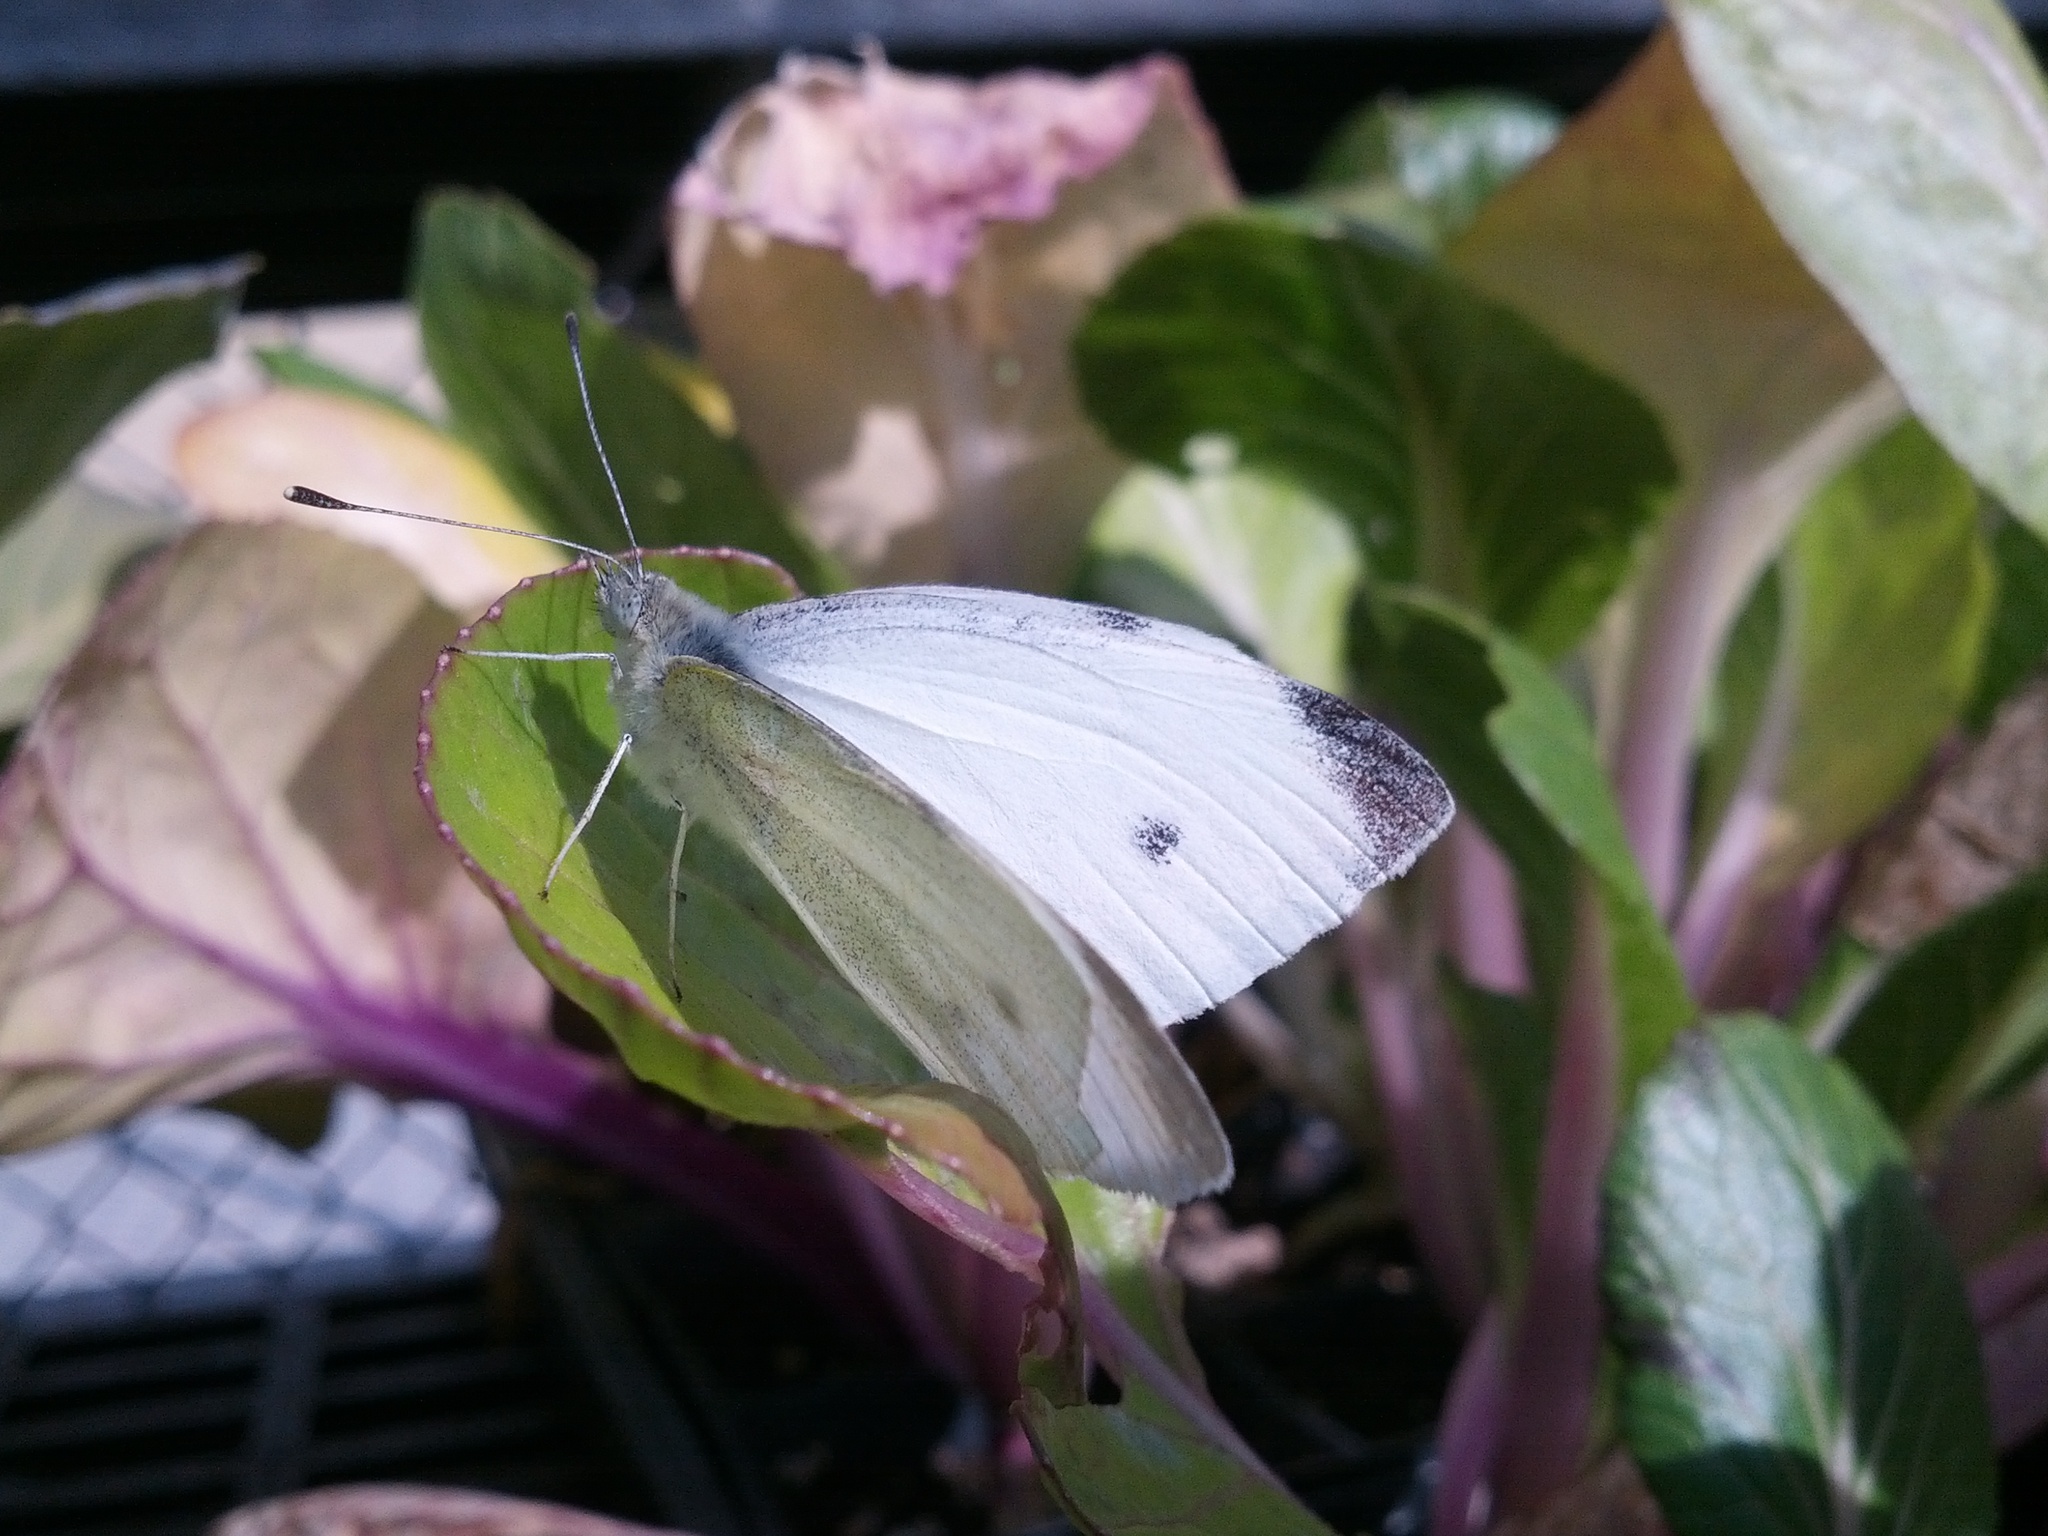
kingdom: Animalia
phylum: Arthropoda
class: Insecta
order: Lepidoptera
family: Pieridae
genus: Pieris
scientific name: Pieris rapae
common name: Small white
